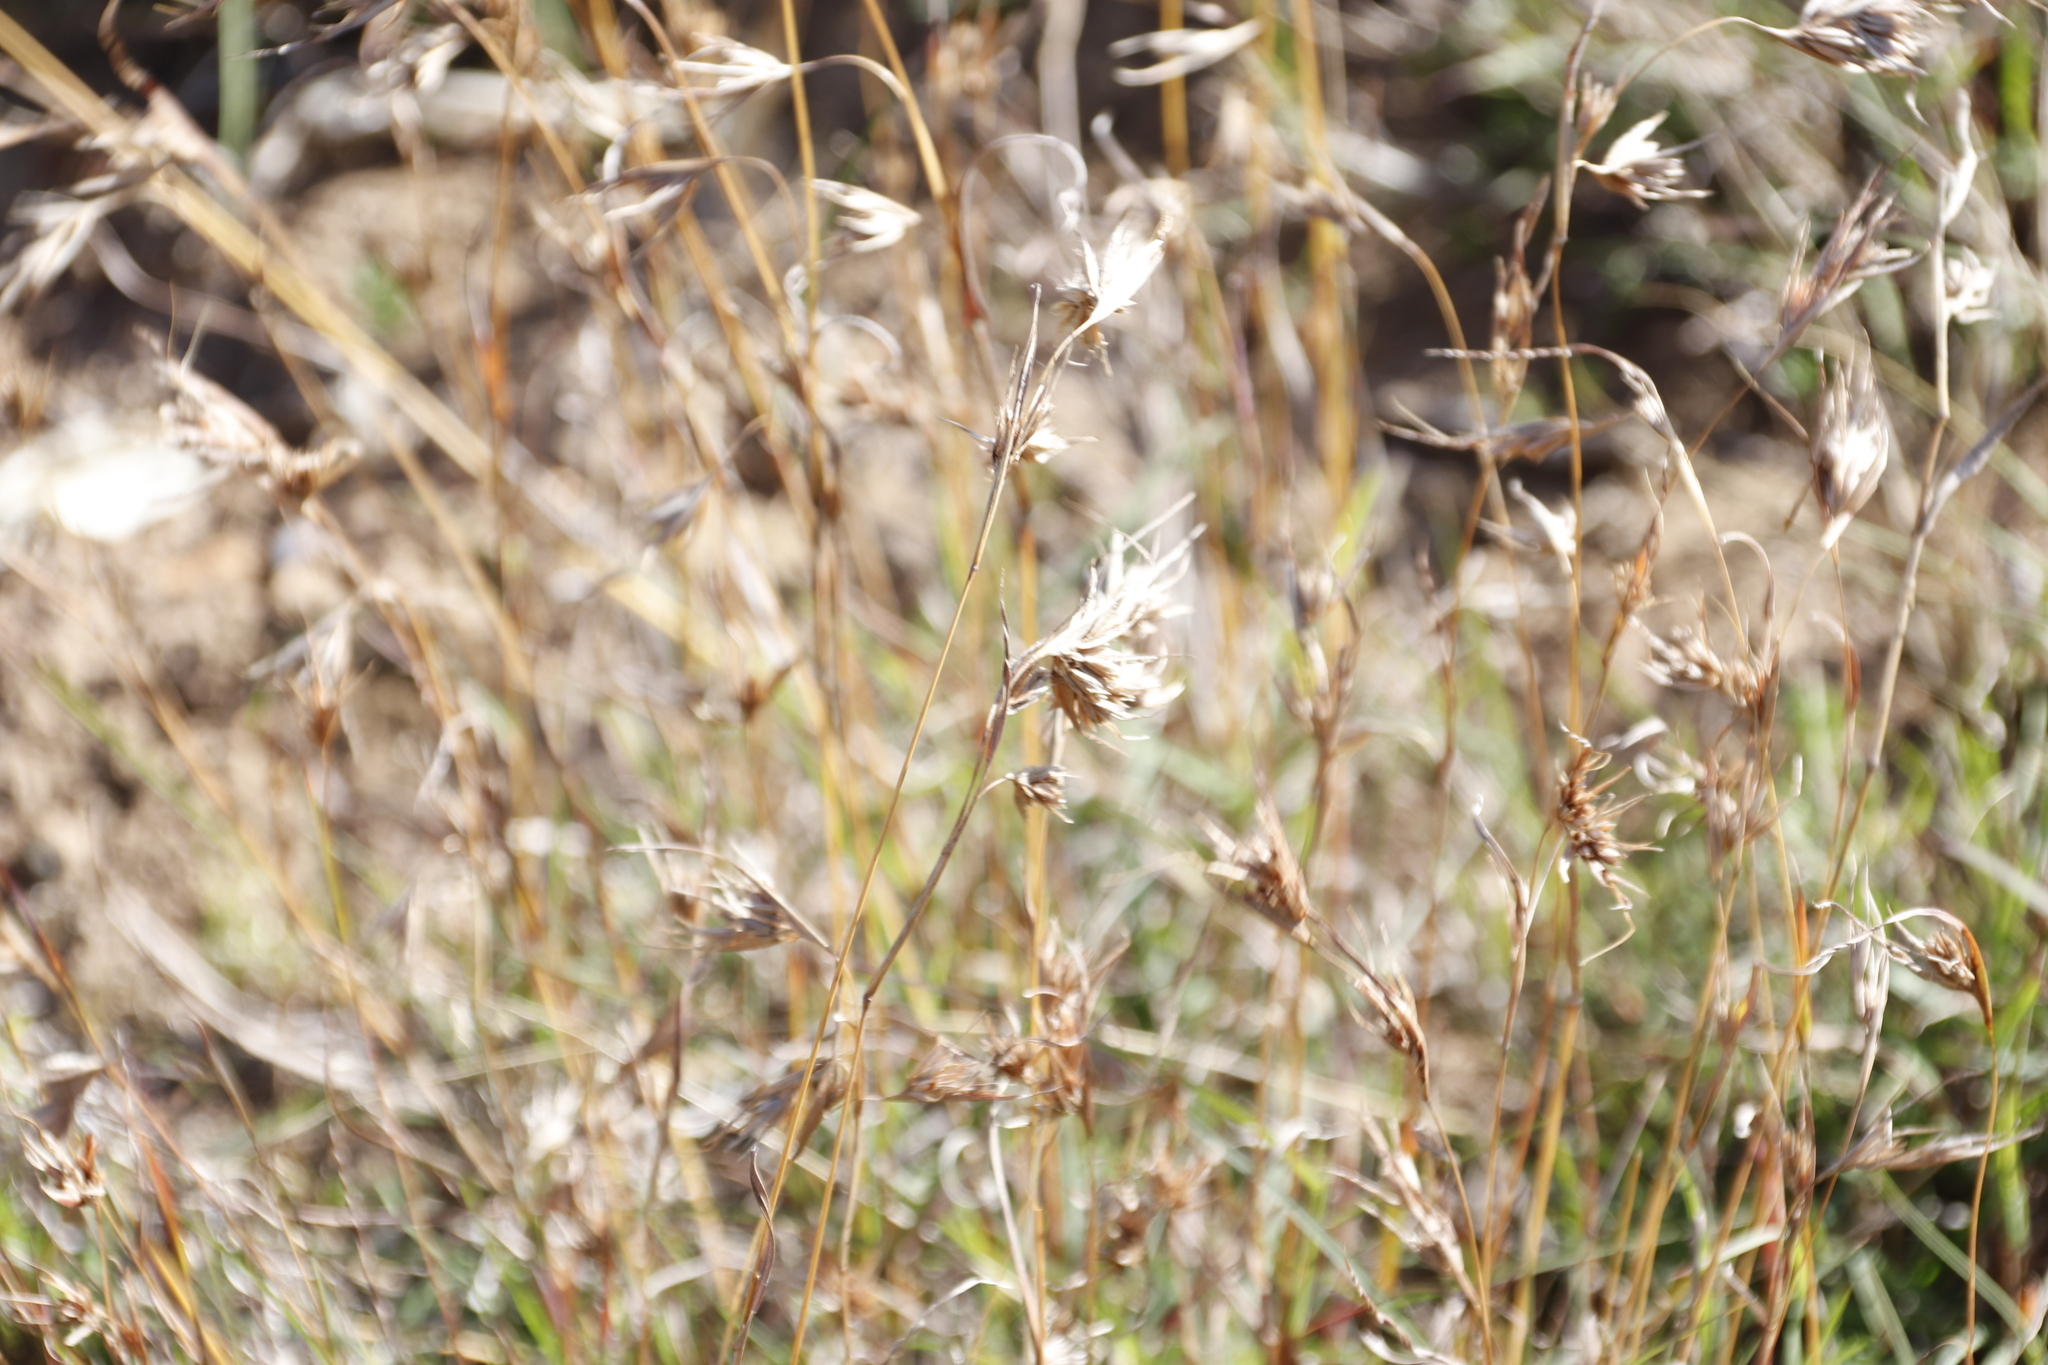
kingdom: Plantae
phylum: Tracheophyta
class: Liliopsida
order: Poales
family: Poaceae
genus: Themeda
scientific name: Themeda triandra
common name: Kangaroo grass
